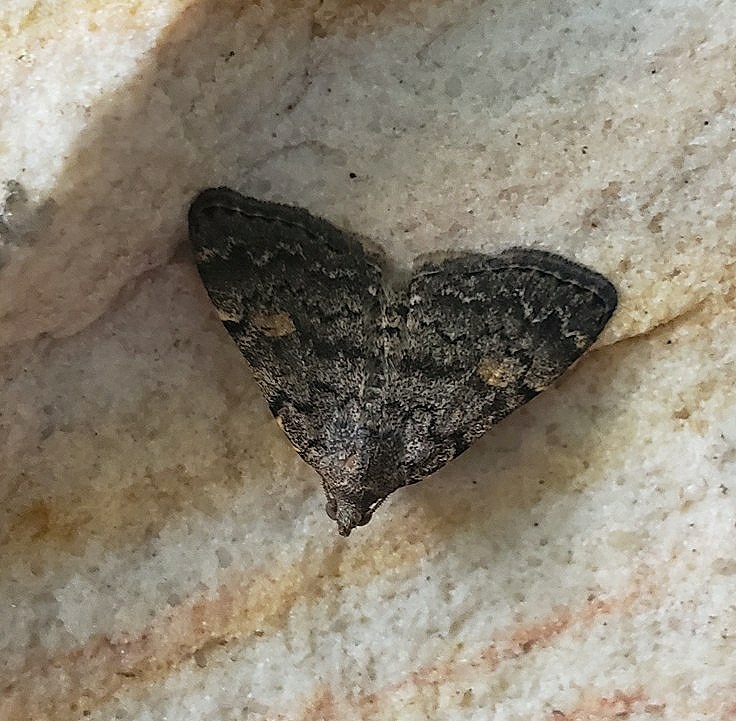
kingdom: Animalia
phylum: Arthropoda
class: Insecta
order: Lepidoptera
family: Erebidae
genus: Idia
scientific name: Idia aemula
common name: Common idia moth
